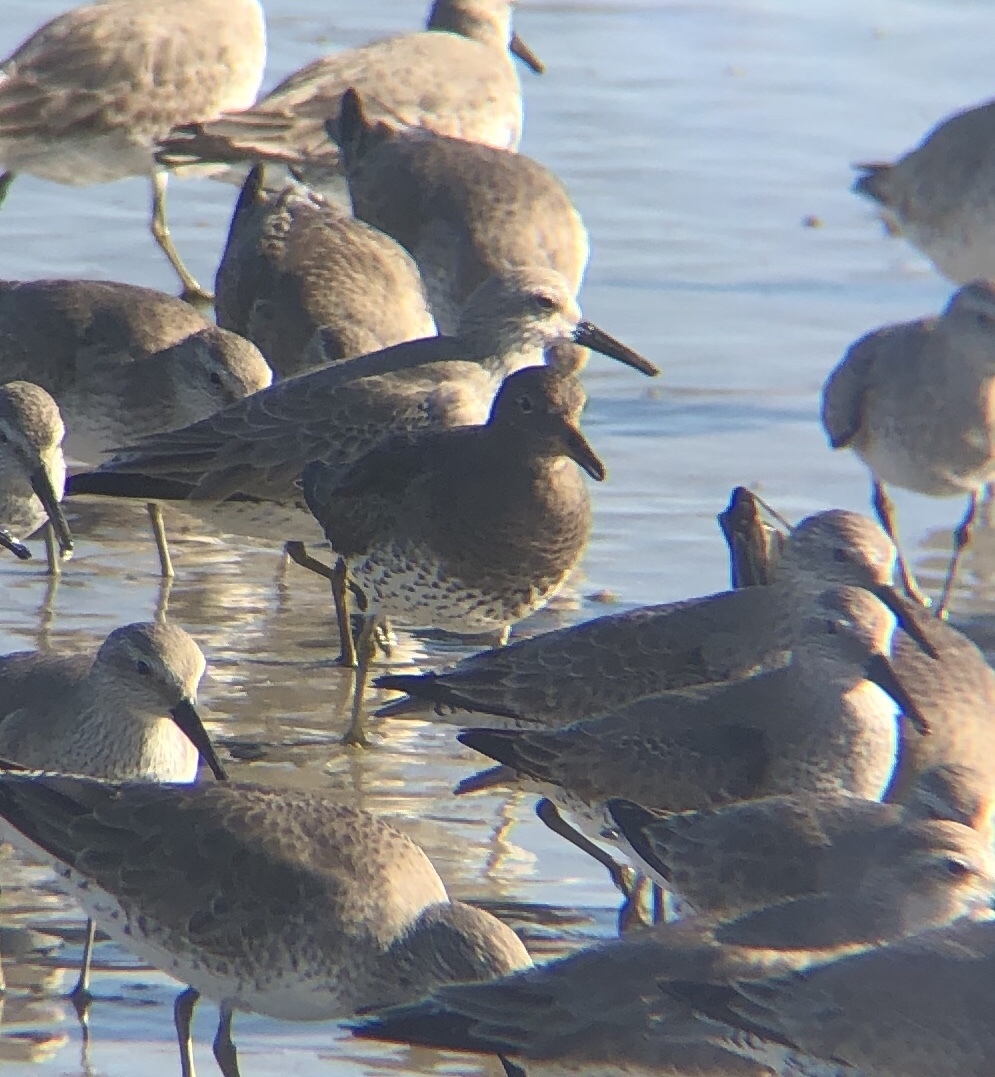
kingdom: Animalia
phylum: Chordata
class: Aves
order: Charadriiformes
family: Scolopacidae
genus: Calidris
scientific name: Calidris virgata
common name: Surfbird
